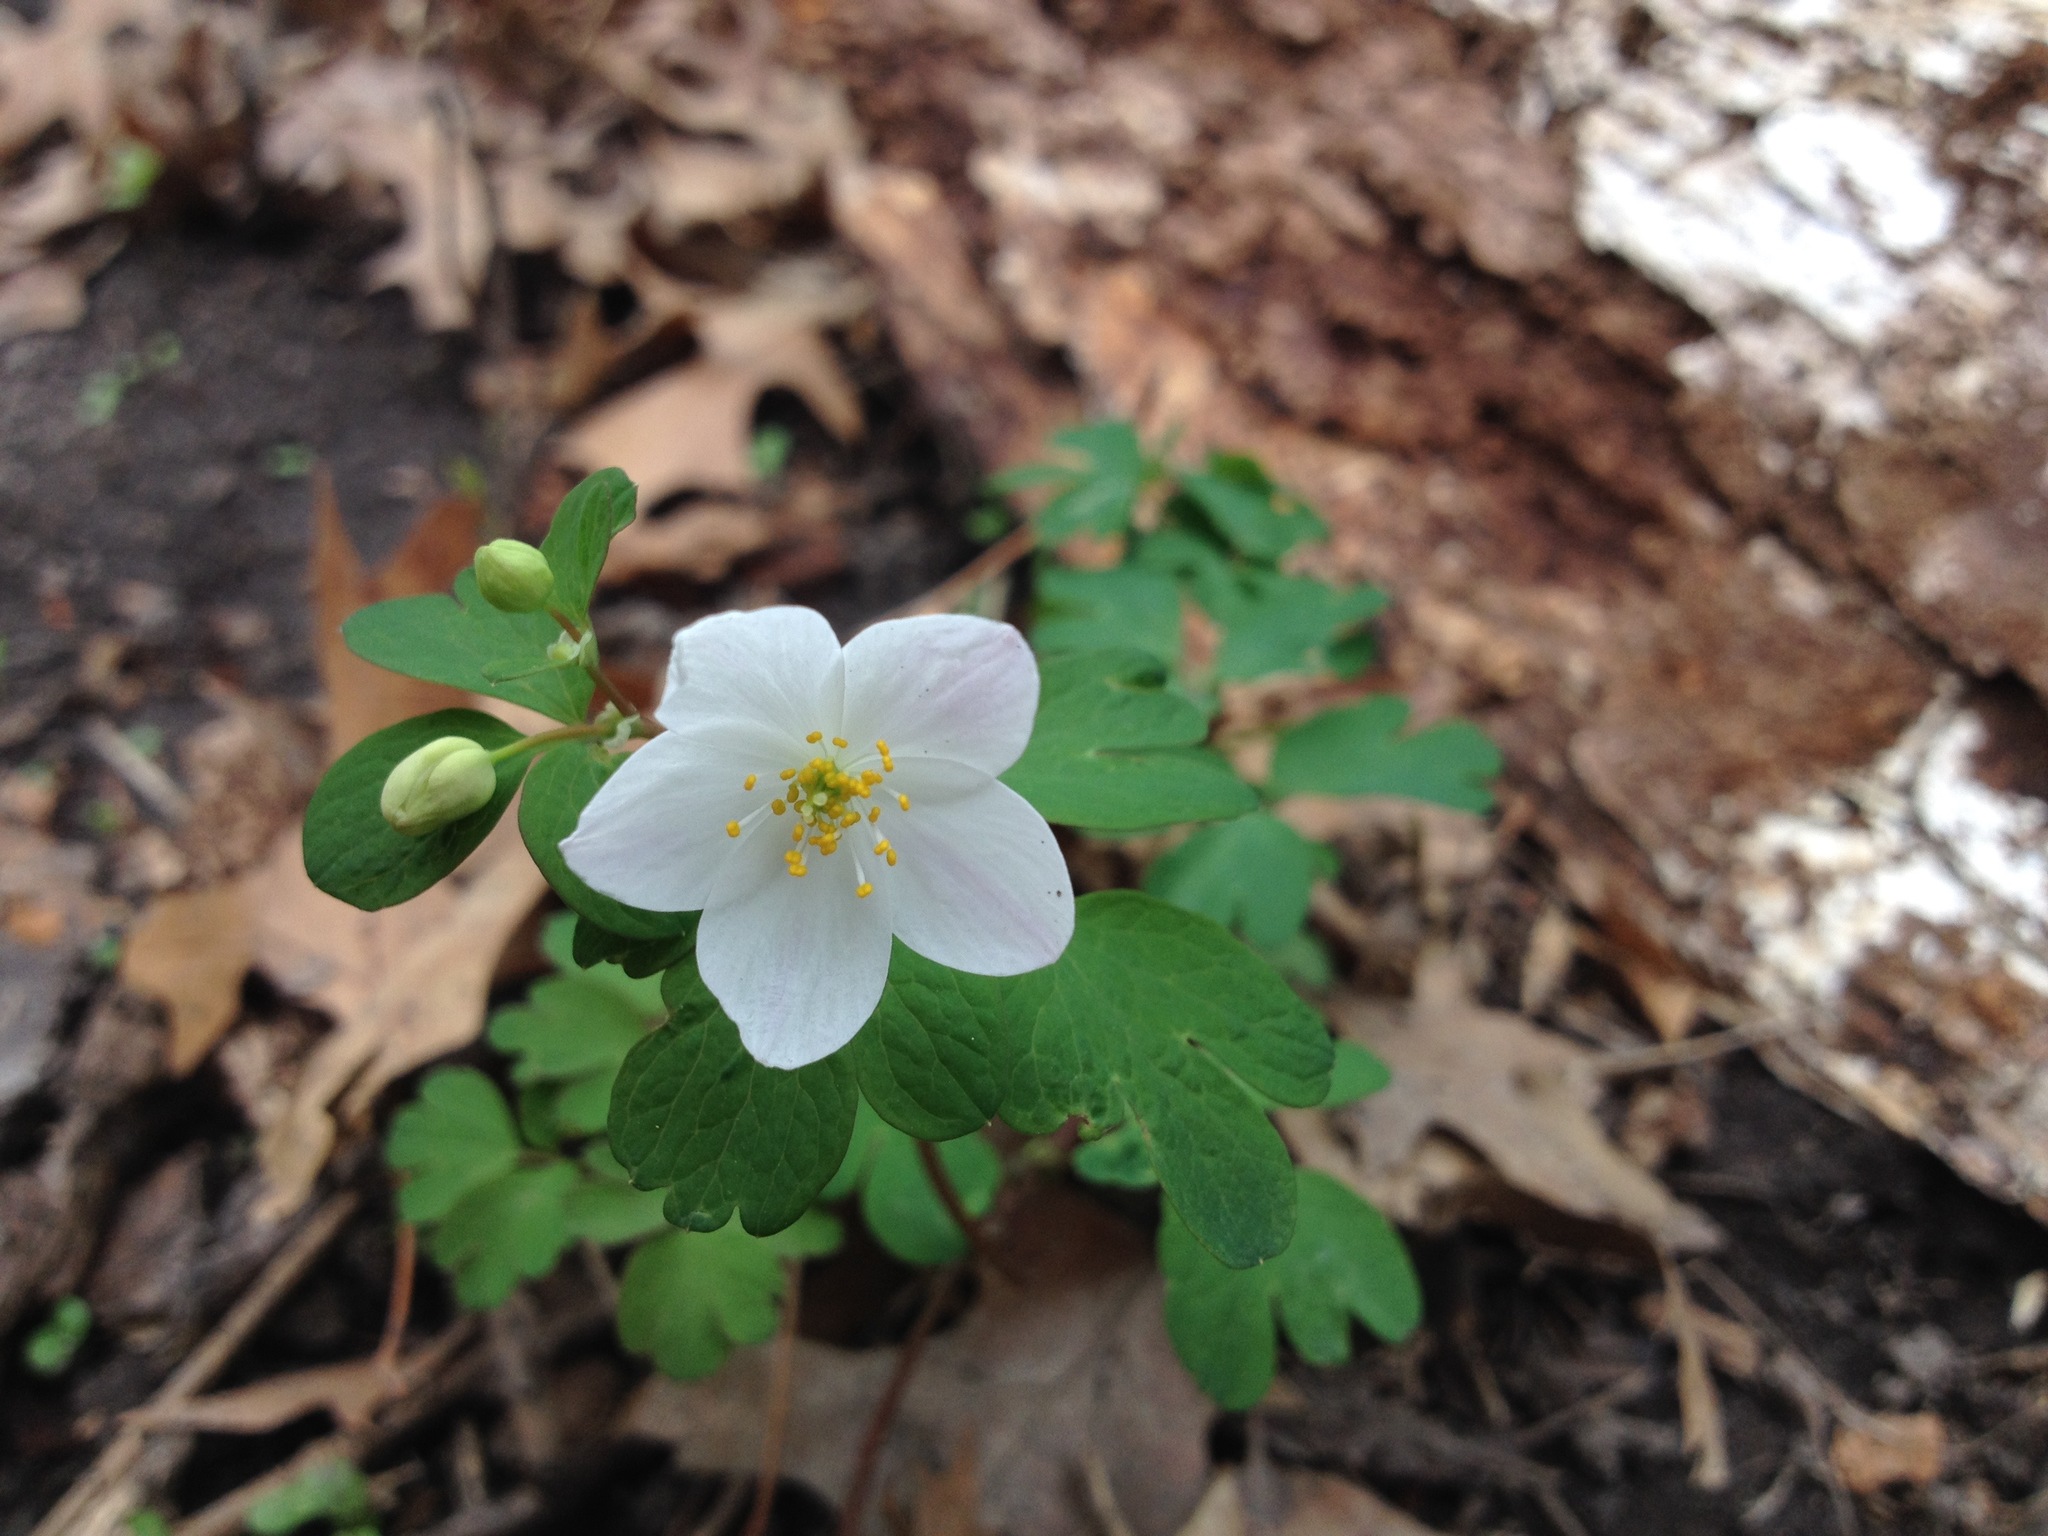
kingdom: Plantae
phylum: Tracheophyta
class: Magnoliopsida
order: Ranunculales
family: Ranunculaceae
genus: Enemion
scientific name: Enemion biternatum
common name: Eastern false rue-anemone
